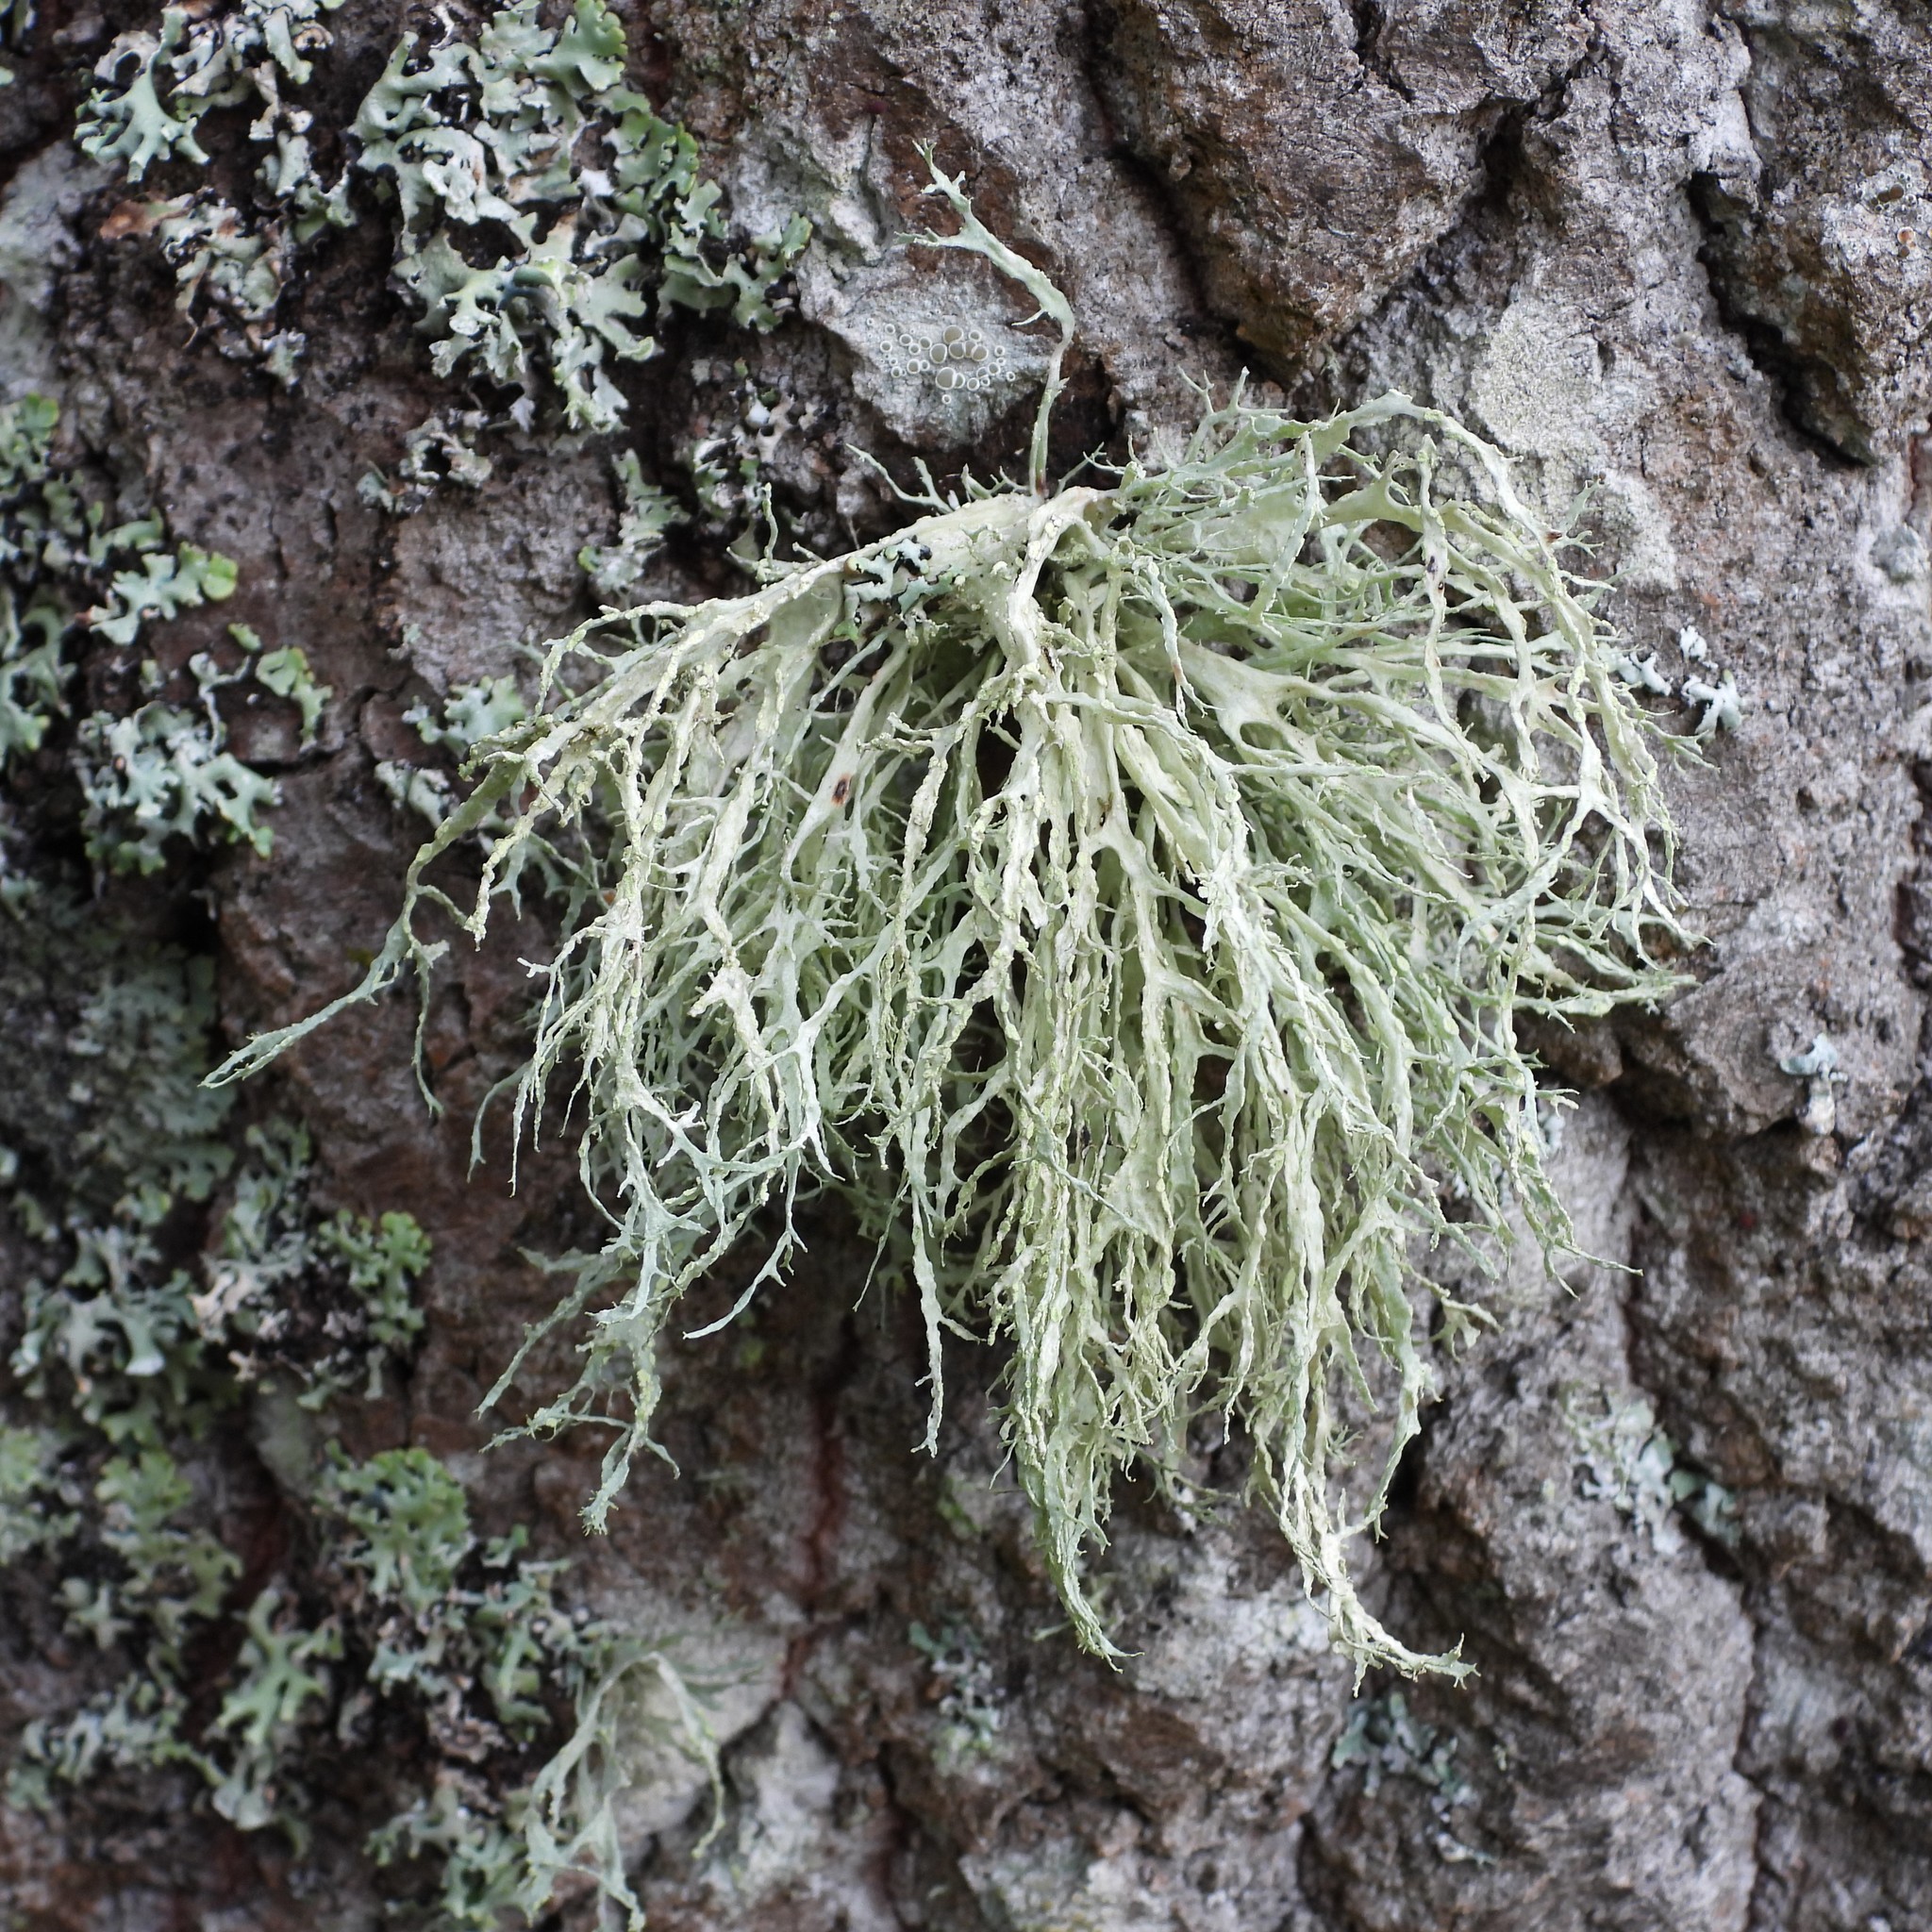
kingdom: Fungi
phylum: Ascomycota
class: Lecanoromycetes
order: Lecanorales
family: Ramalinaceae
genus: Ramalina
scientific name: Ramalina farinacea
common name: Farinose cartilage lichen
